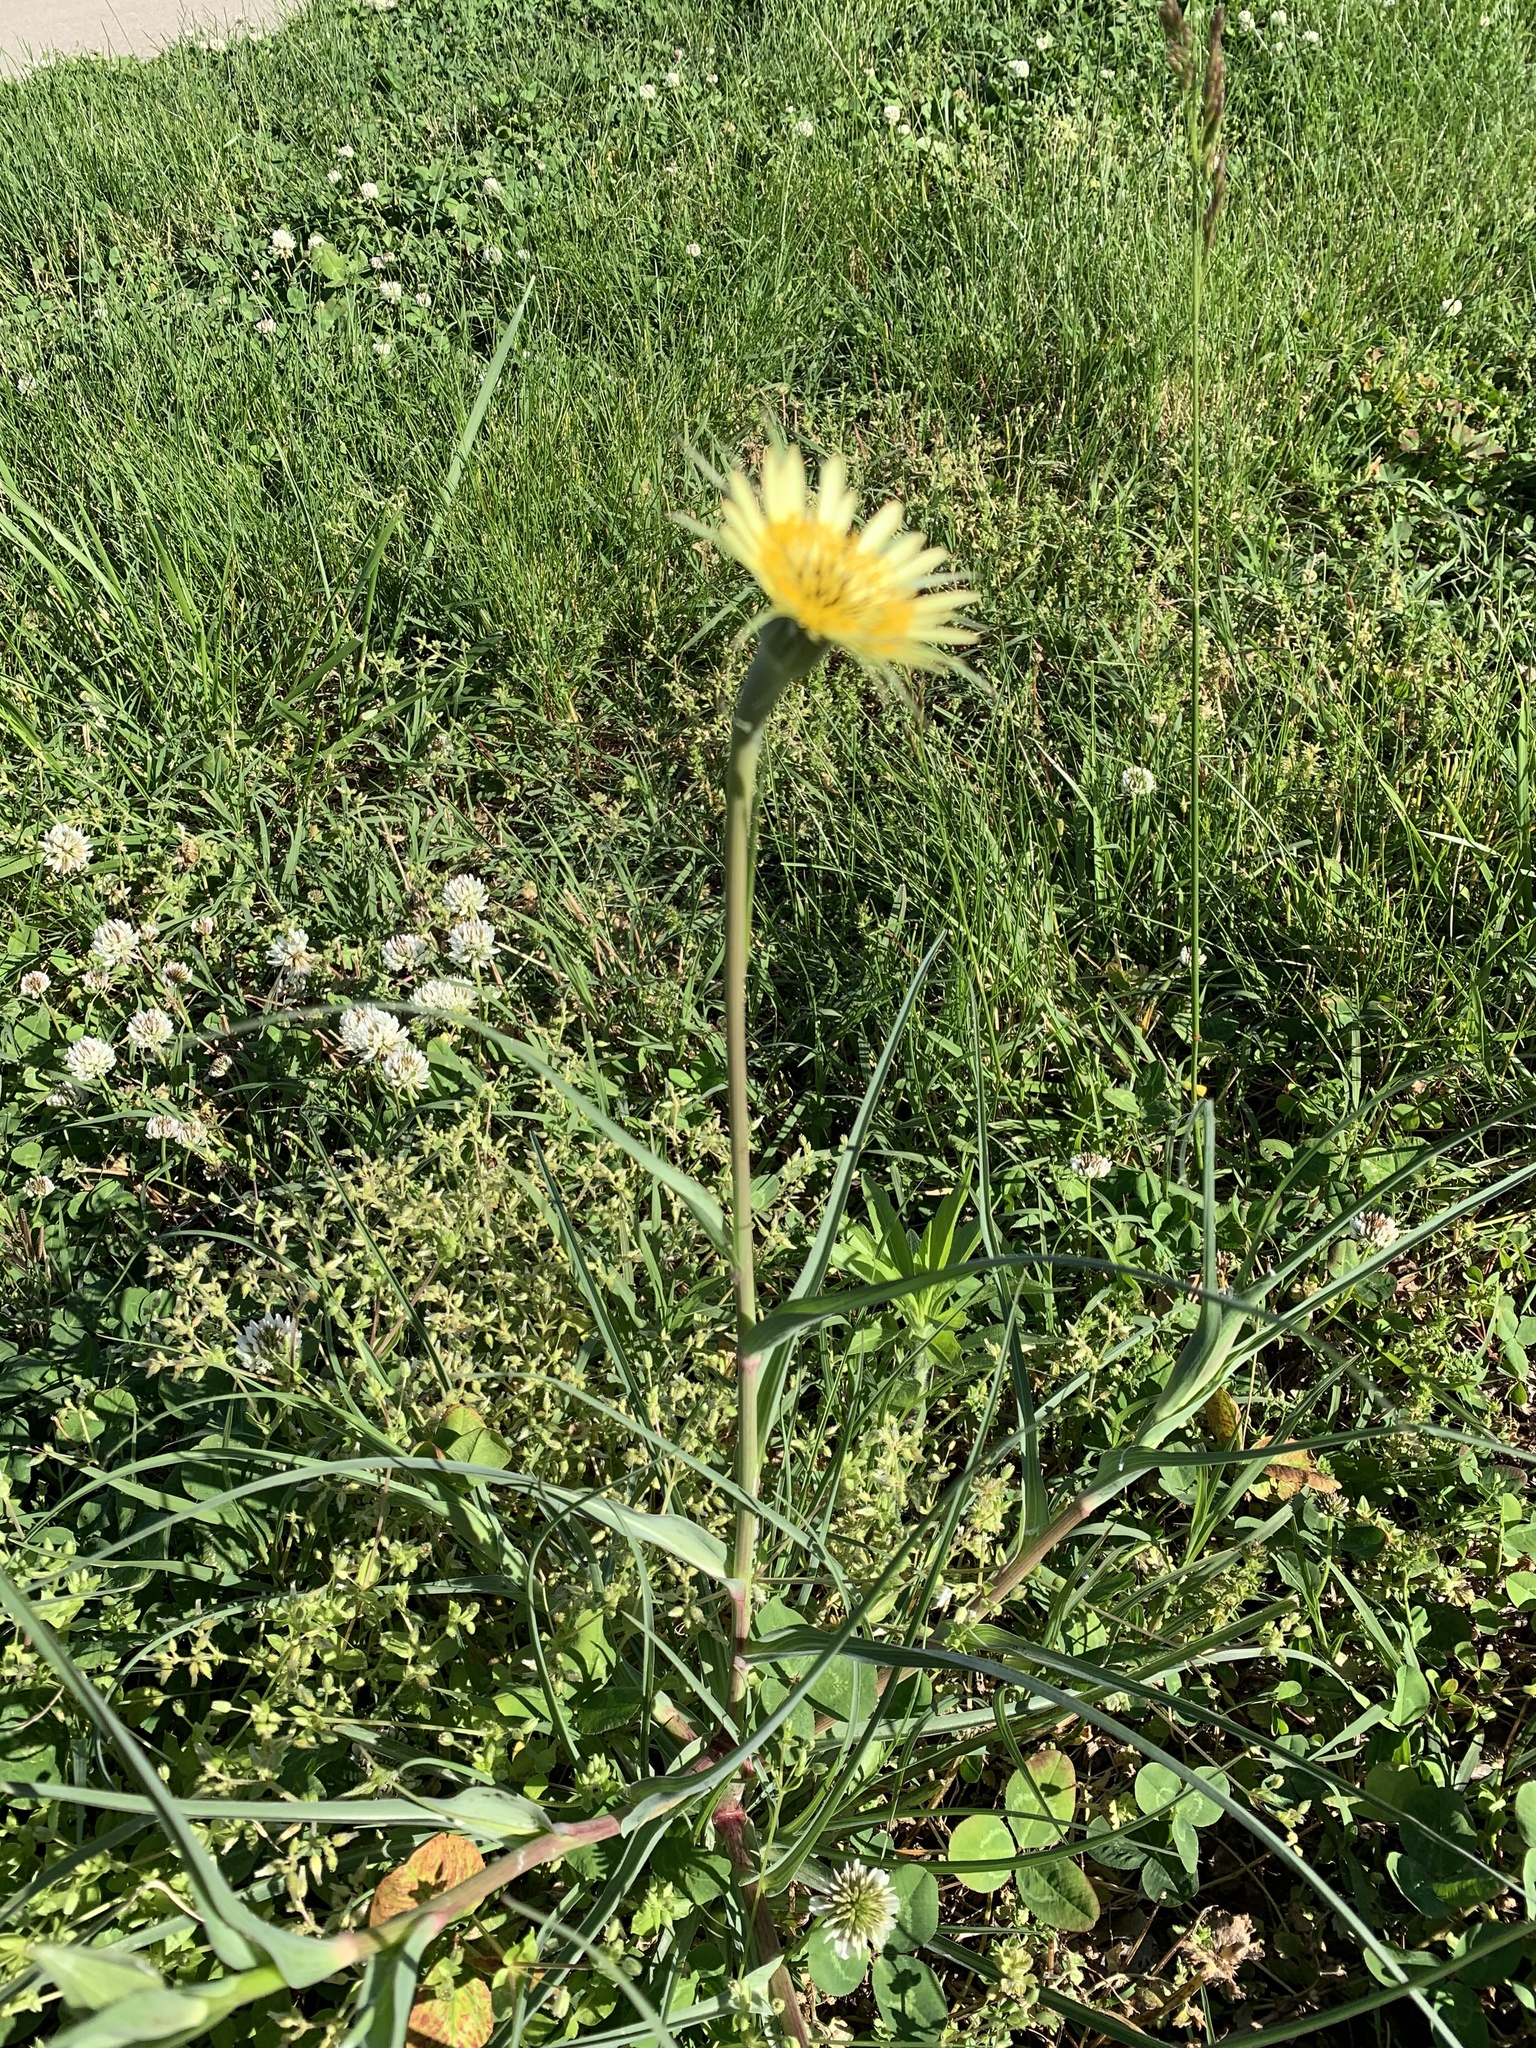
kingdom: Plantae
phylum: Tracheophyta
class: Magnoliopsida
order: Asterales
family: Asteraceae
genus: Tragopogon
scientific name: Tragopogon dubius
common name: Yellow salsify
